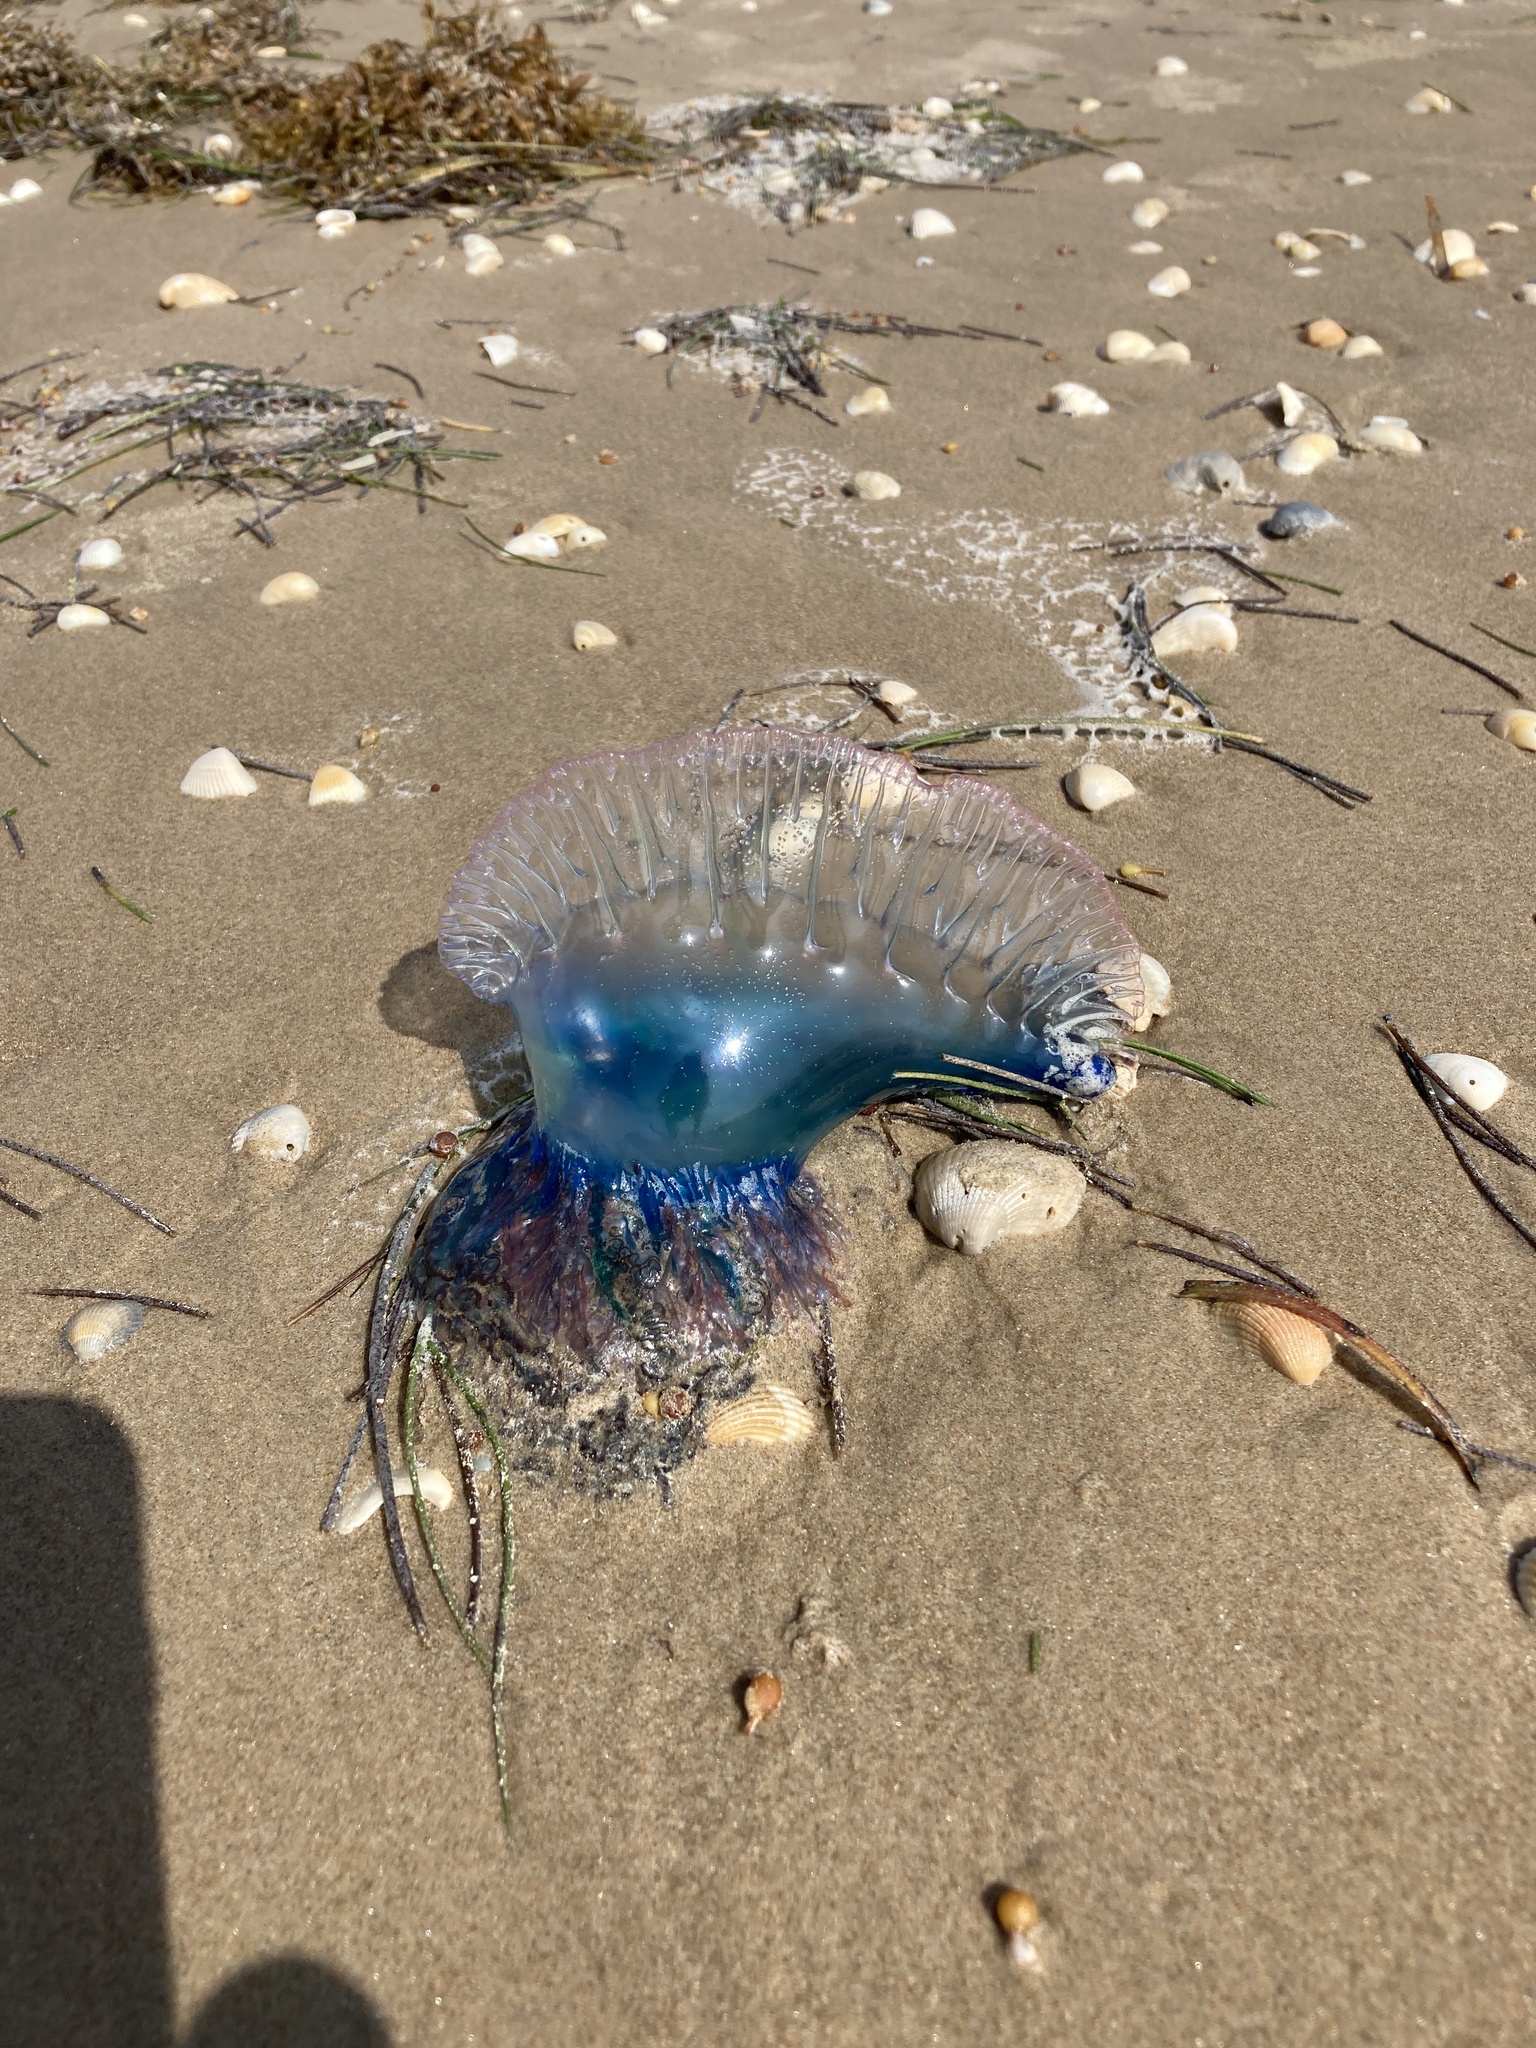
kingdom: Animalia
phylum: Cnidaria
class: Hydrozoa
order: Siphonophorae
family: Physaliidae
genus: Physalia
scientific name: Physalia physalis
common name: Portuguese man-of-war
